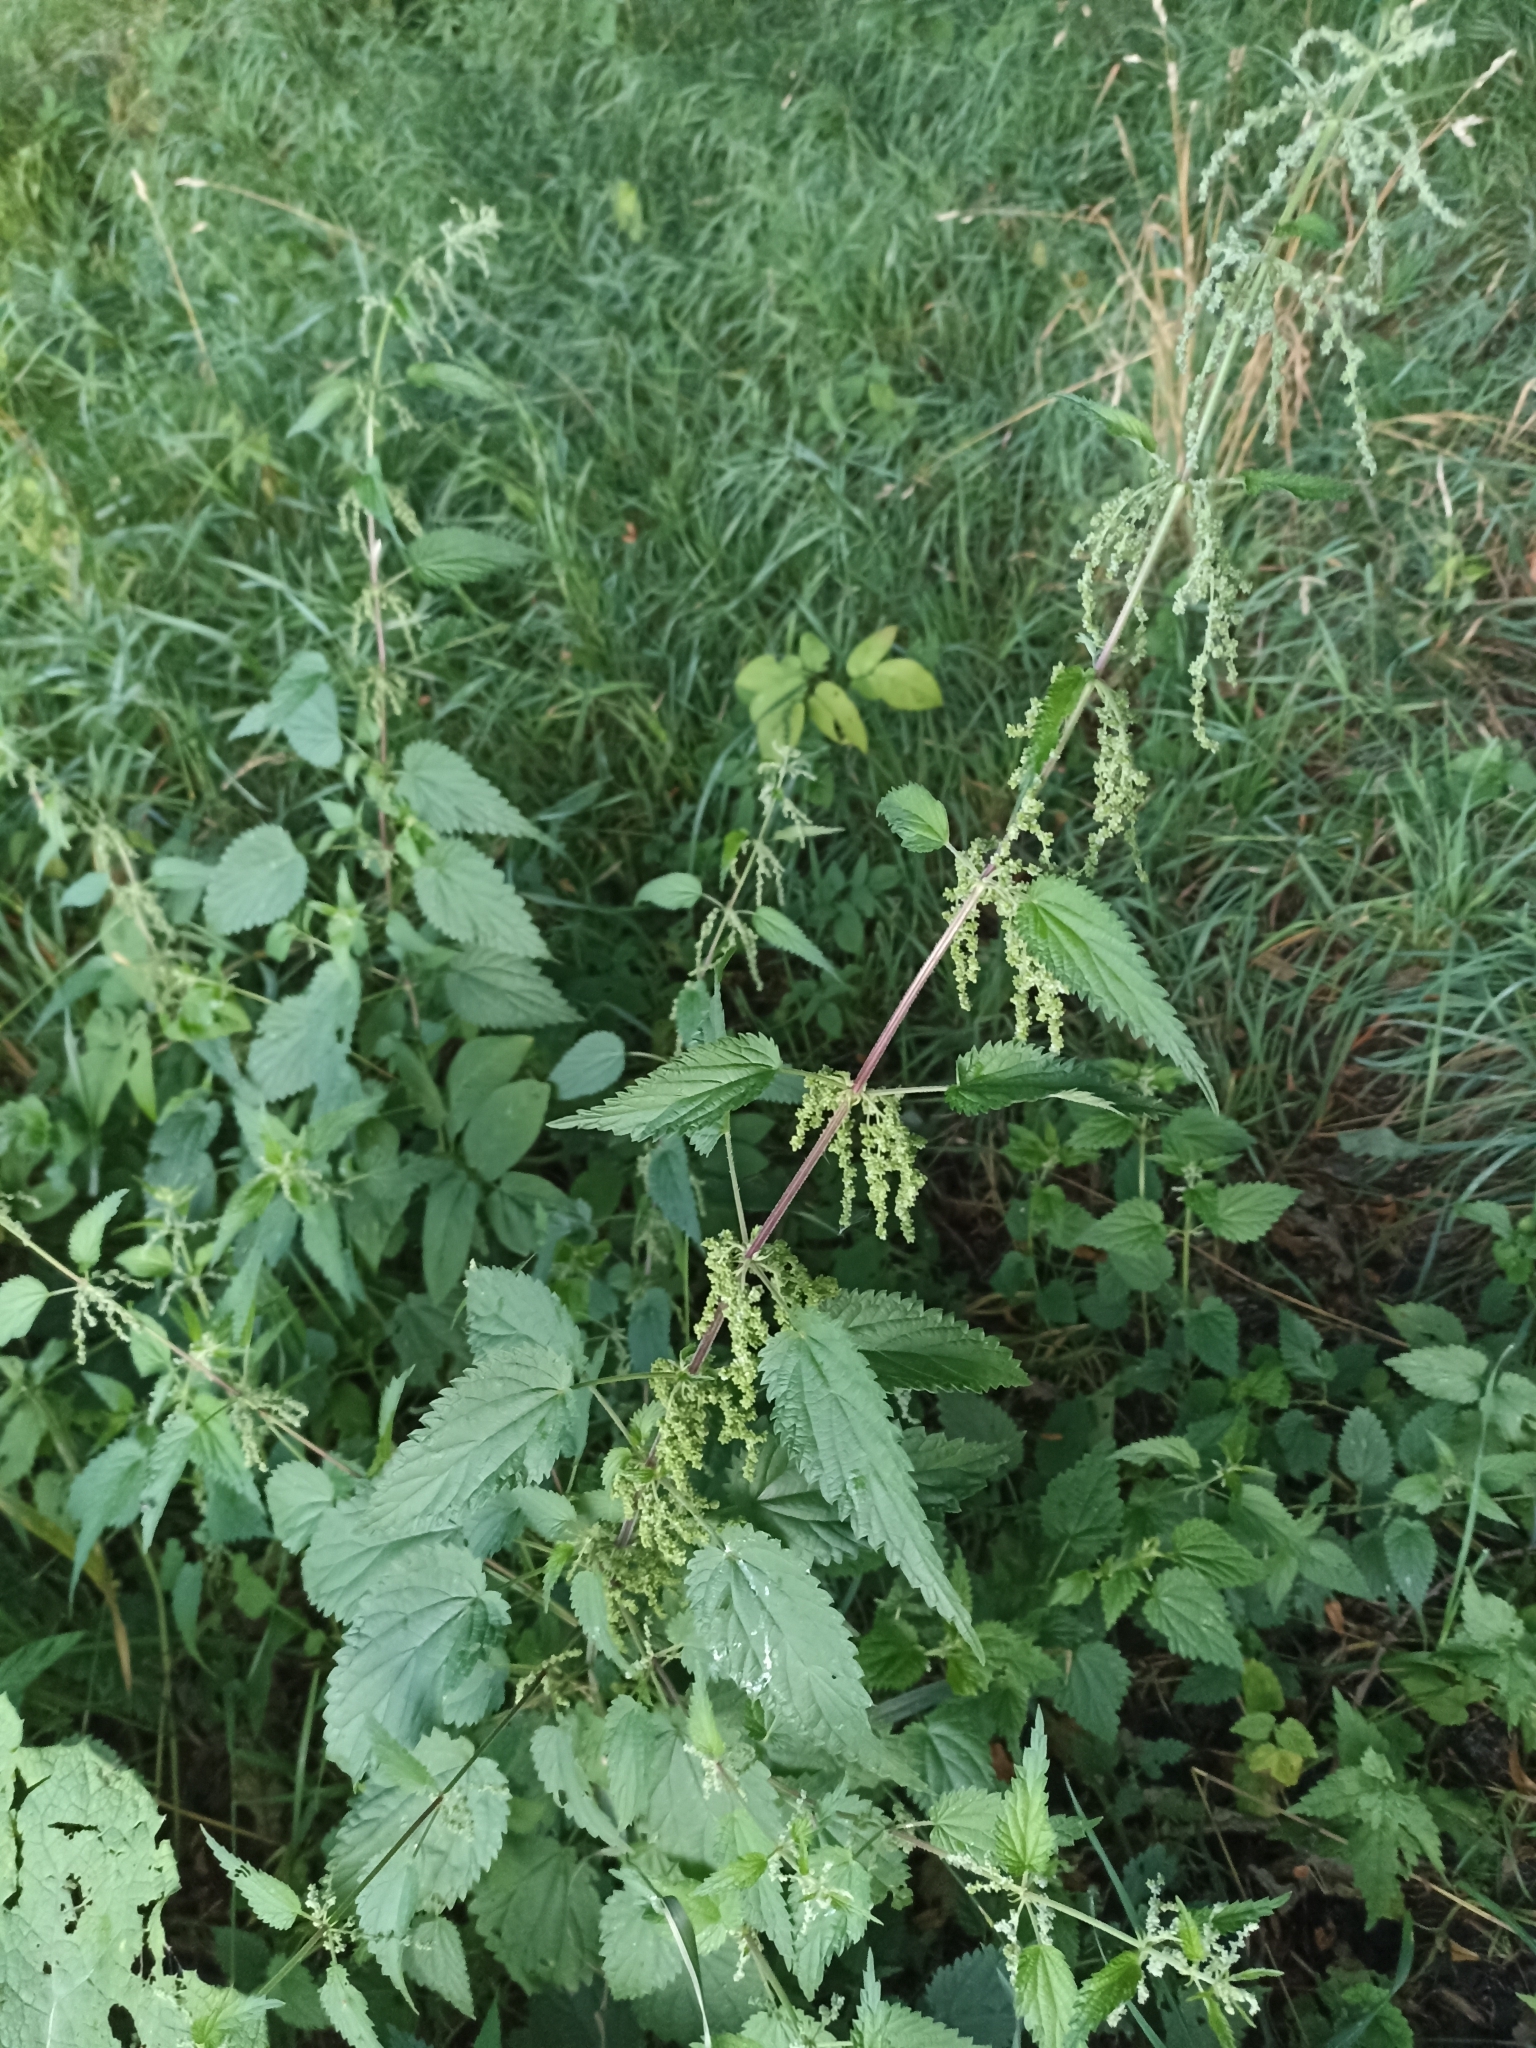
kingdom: Plantae
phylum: Tracheophyta
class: Magnoliopsida
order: Rosales
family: Urticaceae
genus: Urtica
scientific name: Urtica dioica
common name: Common nettle
